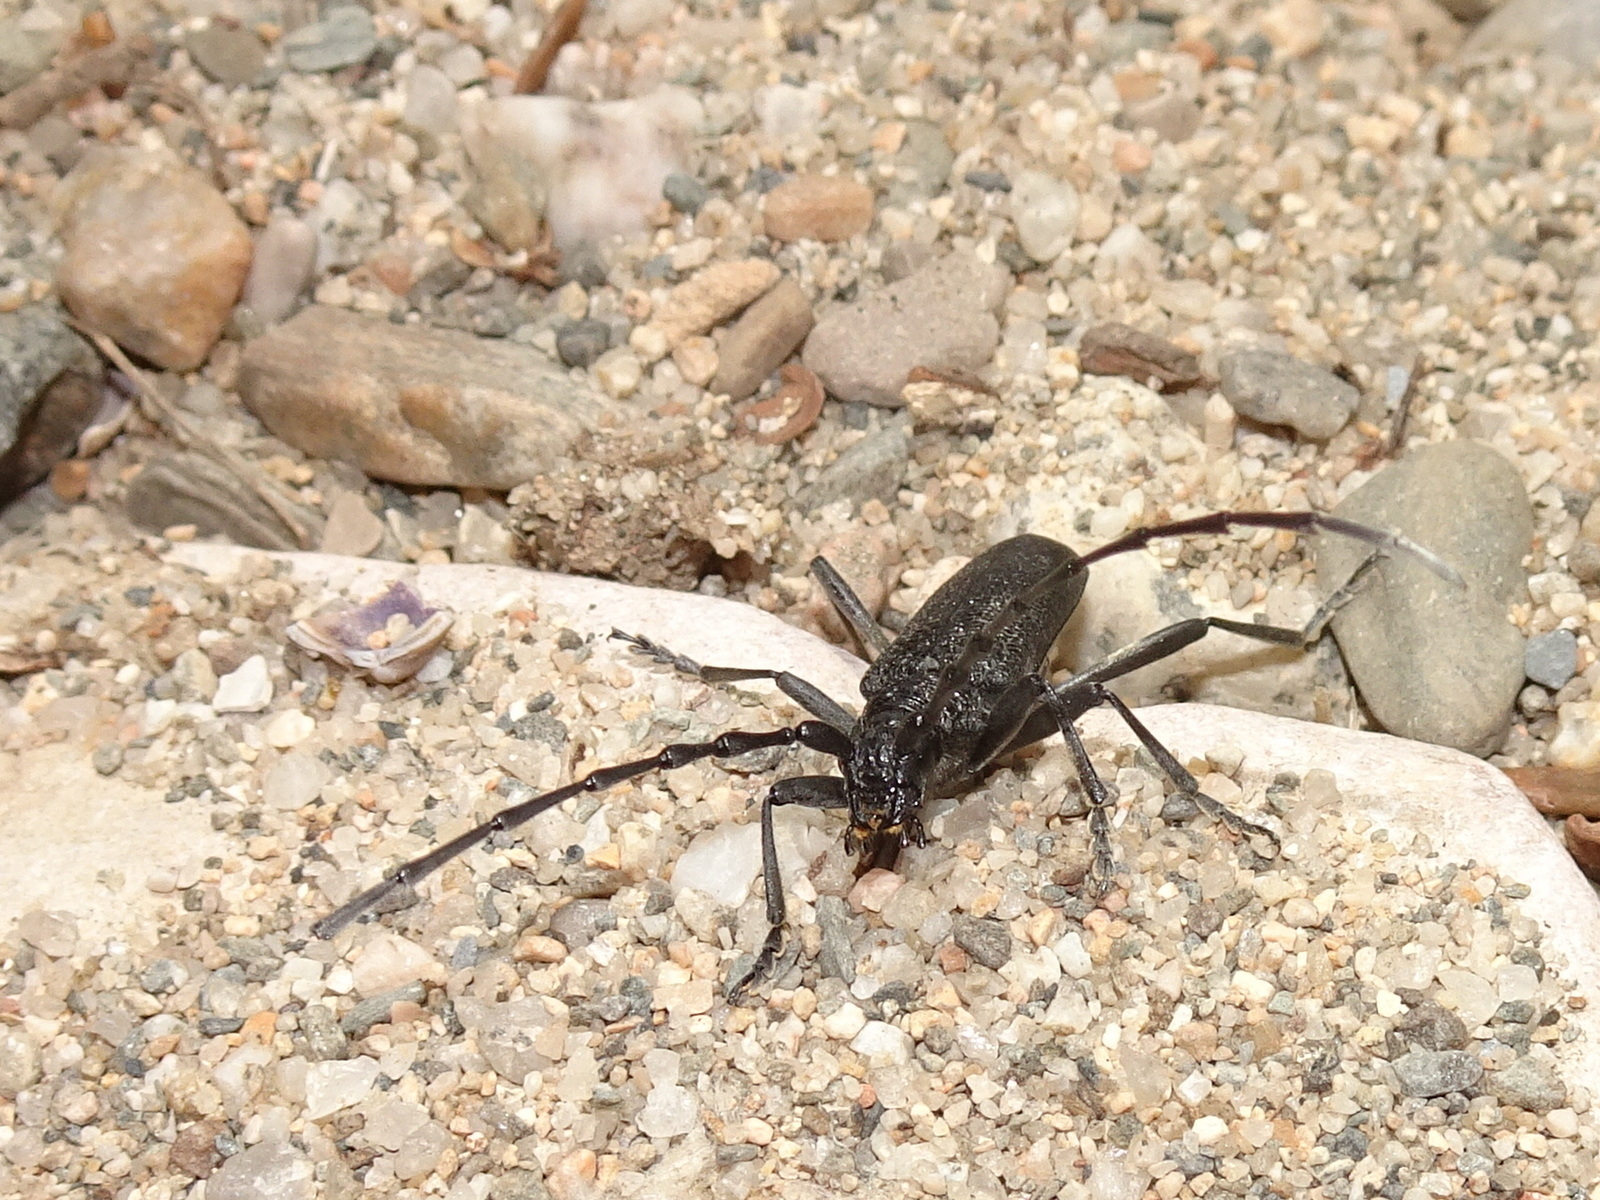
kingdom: Animalia
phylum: Arthropoda
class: Insecta
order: Coleoptera
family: Cerambycidae
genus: Cerambyx
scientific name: Cerambyx scopolii
